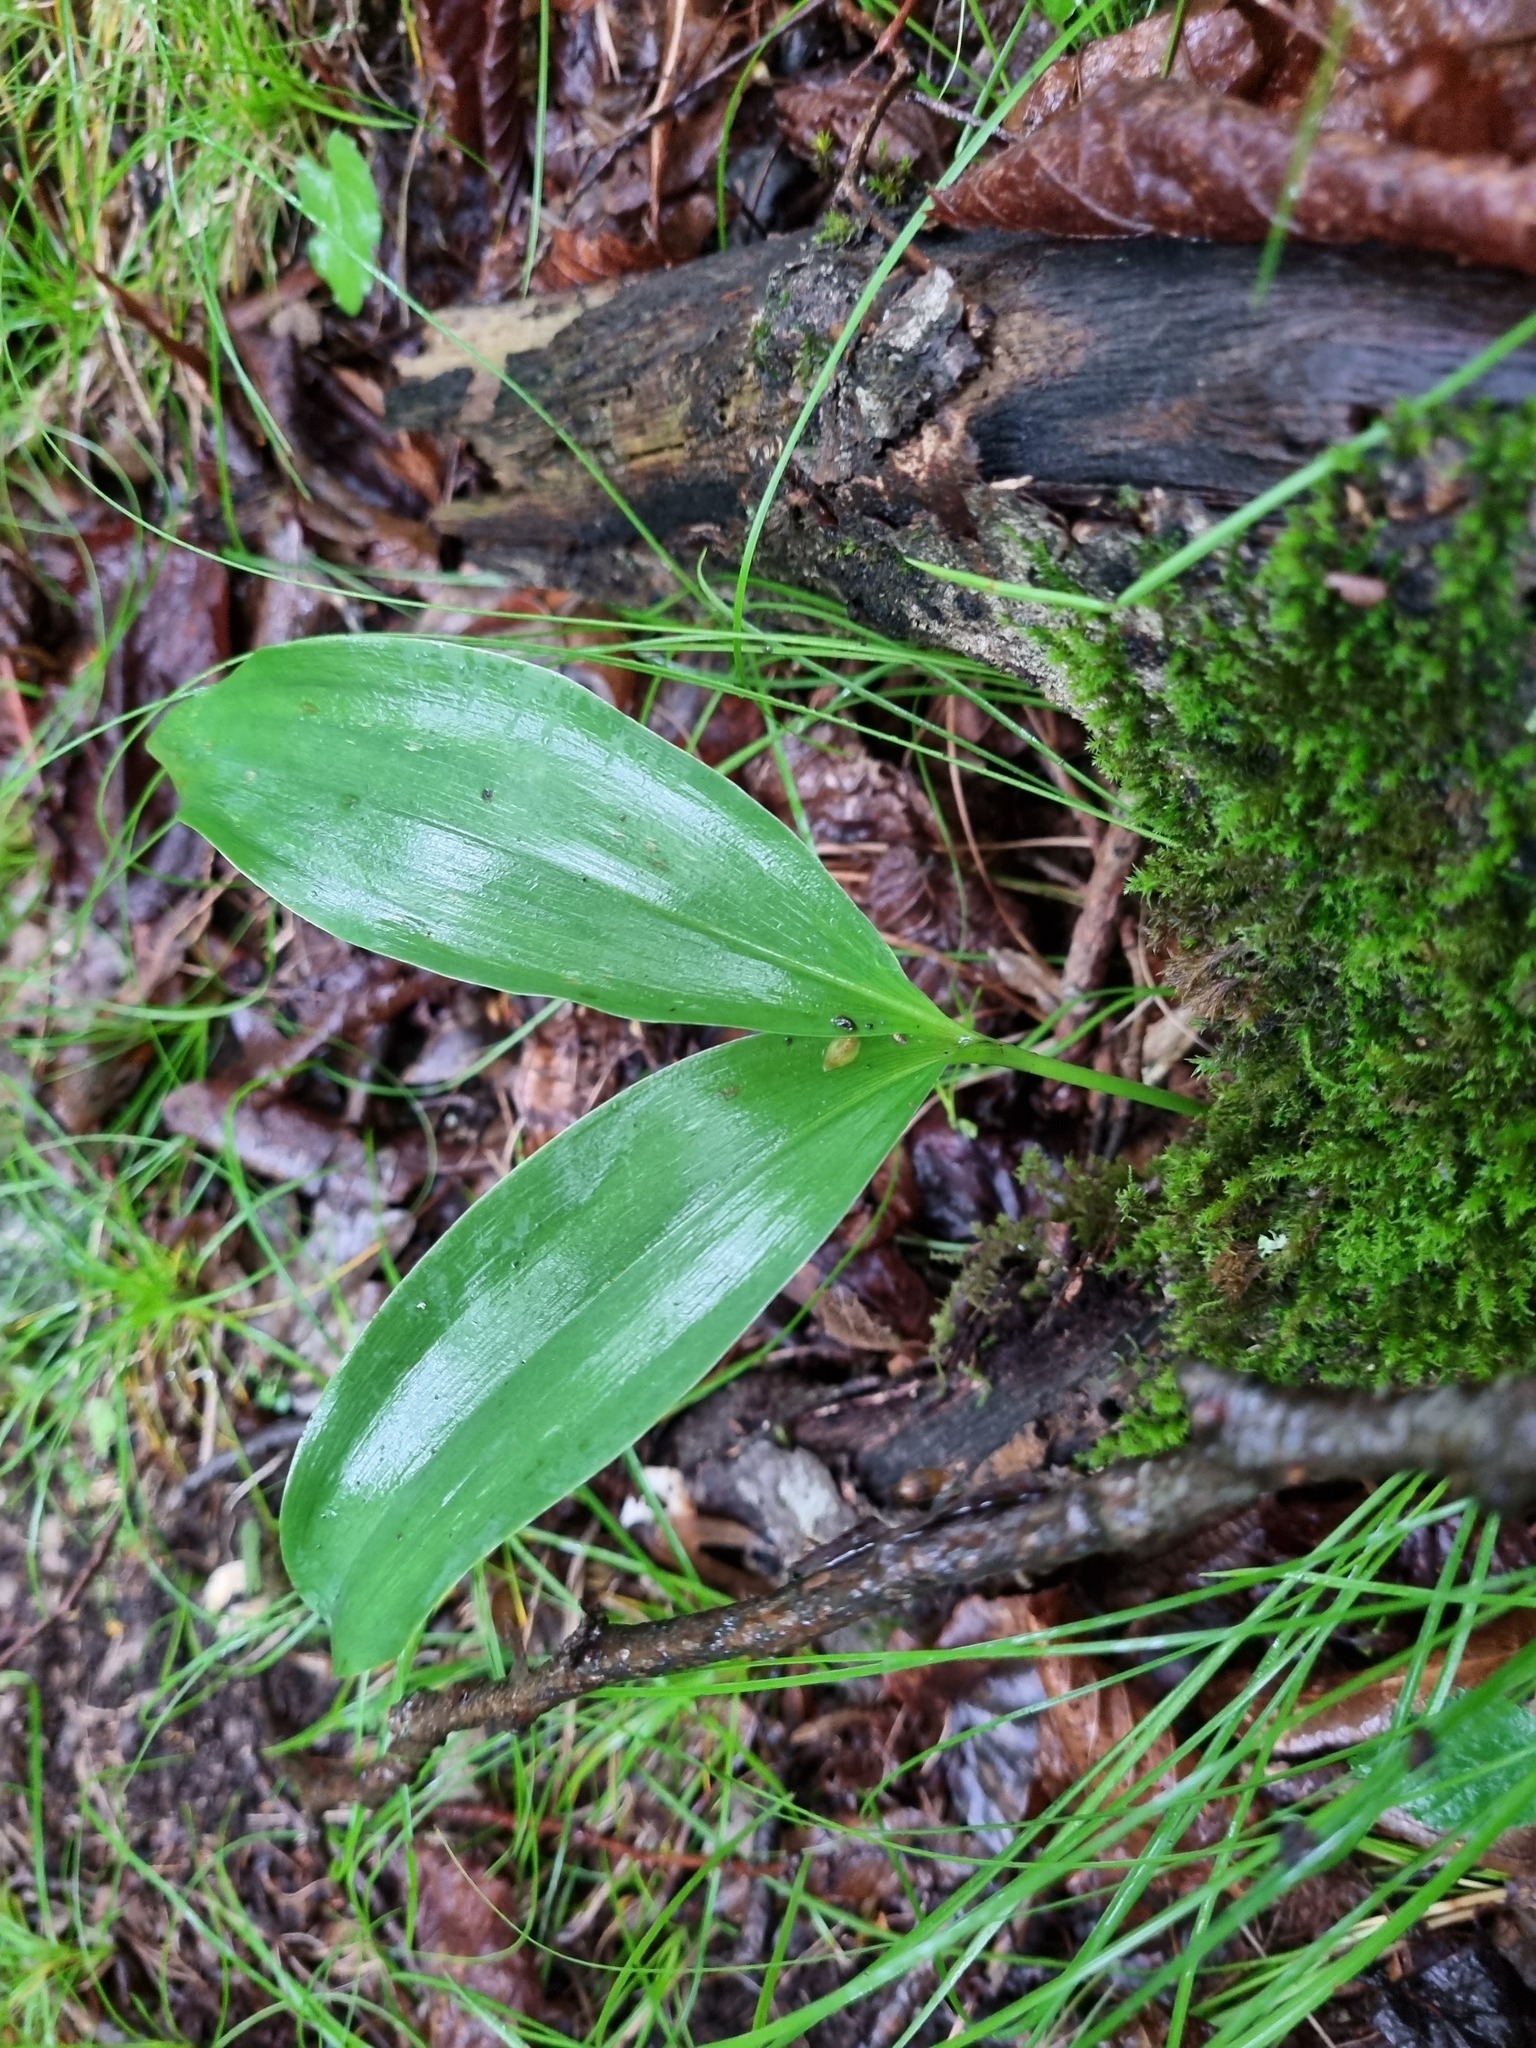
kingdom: Plantae
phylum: Tracheophyta
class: Liliopsida
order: Asparagales
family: Asparagaceae
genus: Convallaria
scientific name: Convallaria majalis
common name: Lily-of-the-valley
